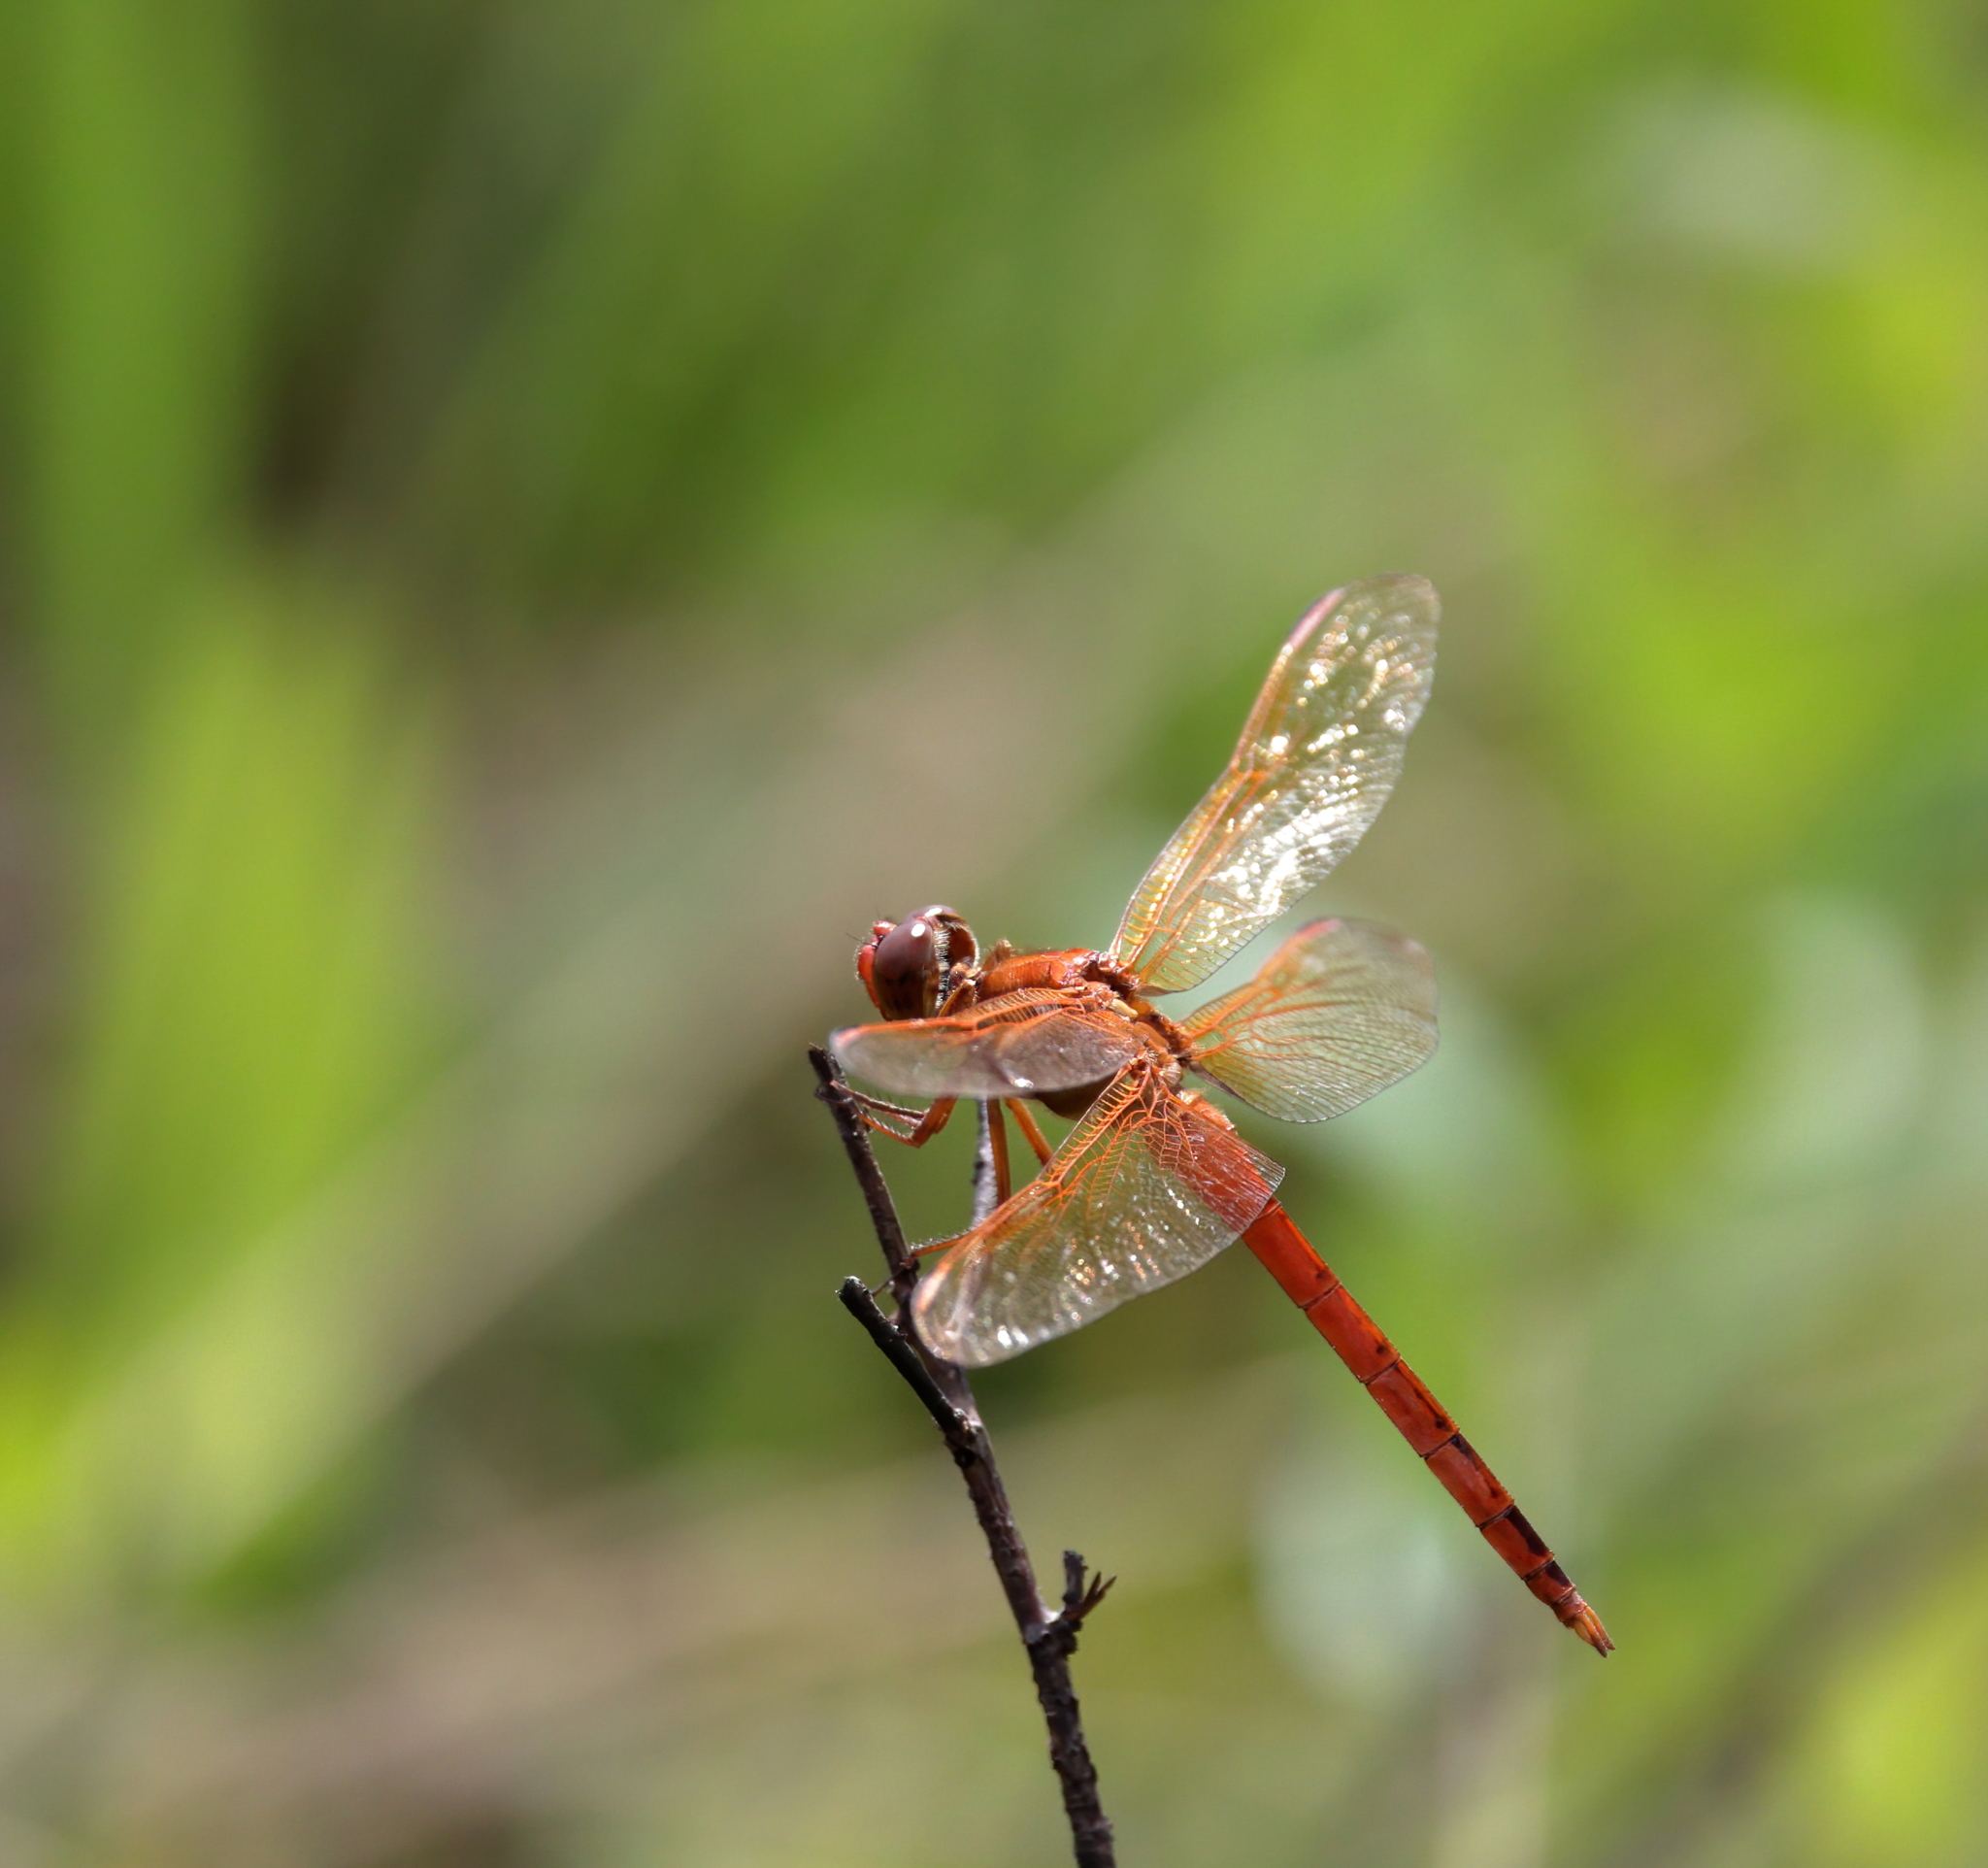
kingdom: Animalia
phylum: Arthropoda
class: Insecta
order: Odonata
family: Libellulidae
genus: Libellula
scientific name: Libellula auripennis
